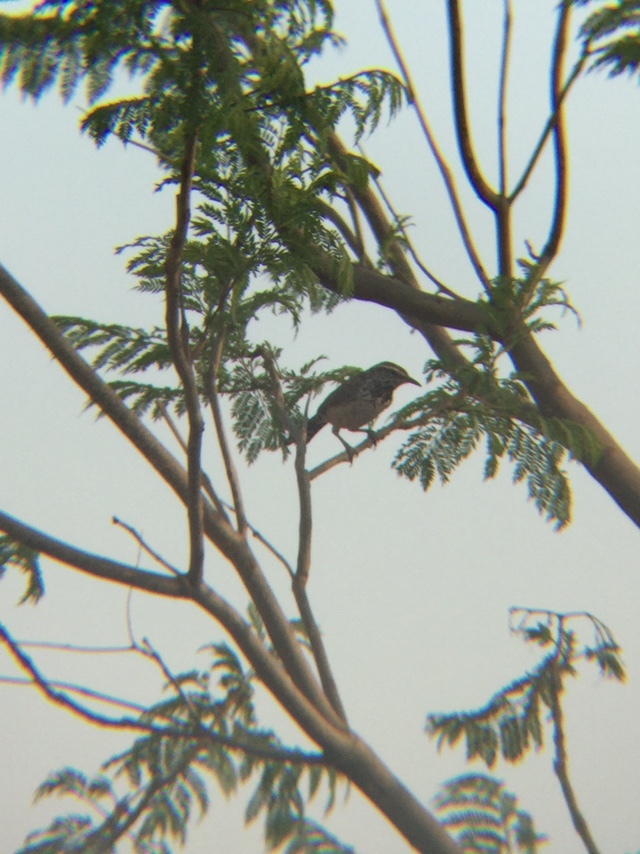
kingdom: Animalia
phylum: Chordata
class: Aves
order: Passeriformes
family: Troglodytidae
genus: Campylorhynchus
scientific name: Campylorhynchus brunneicapillus
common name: Cactus wren
